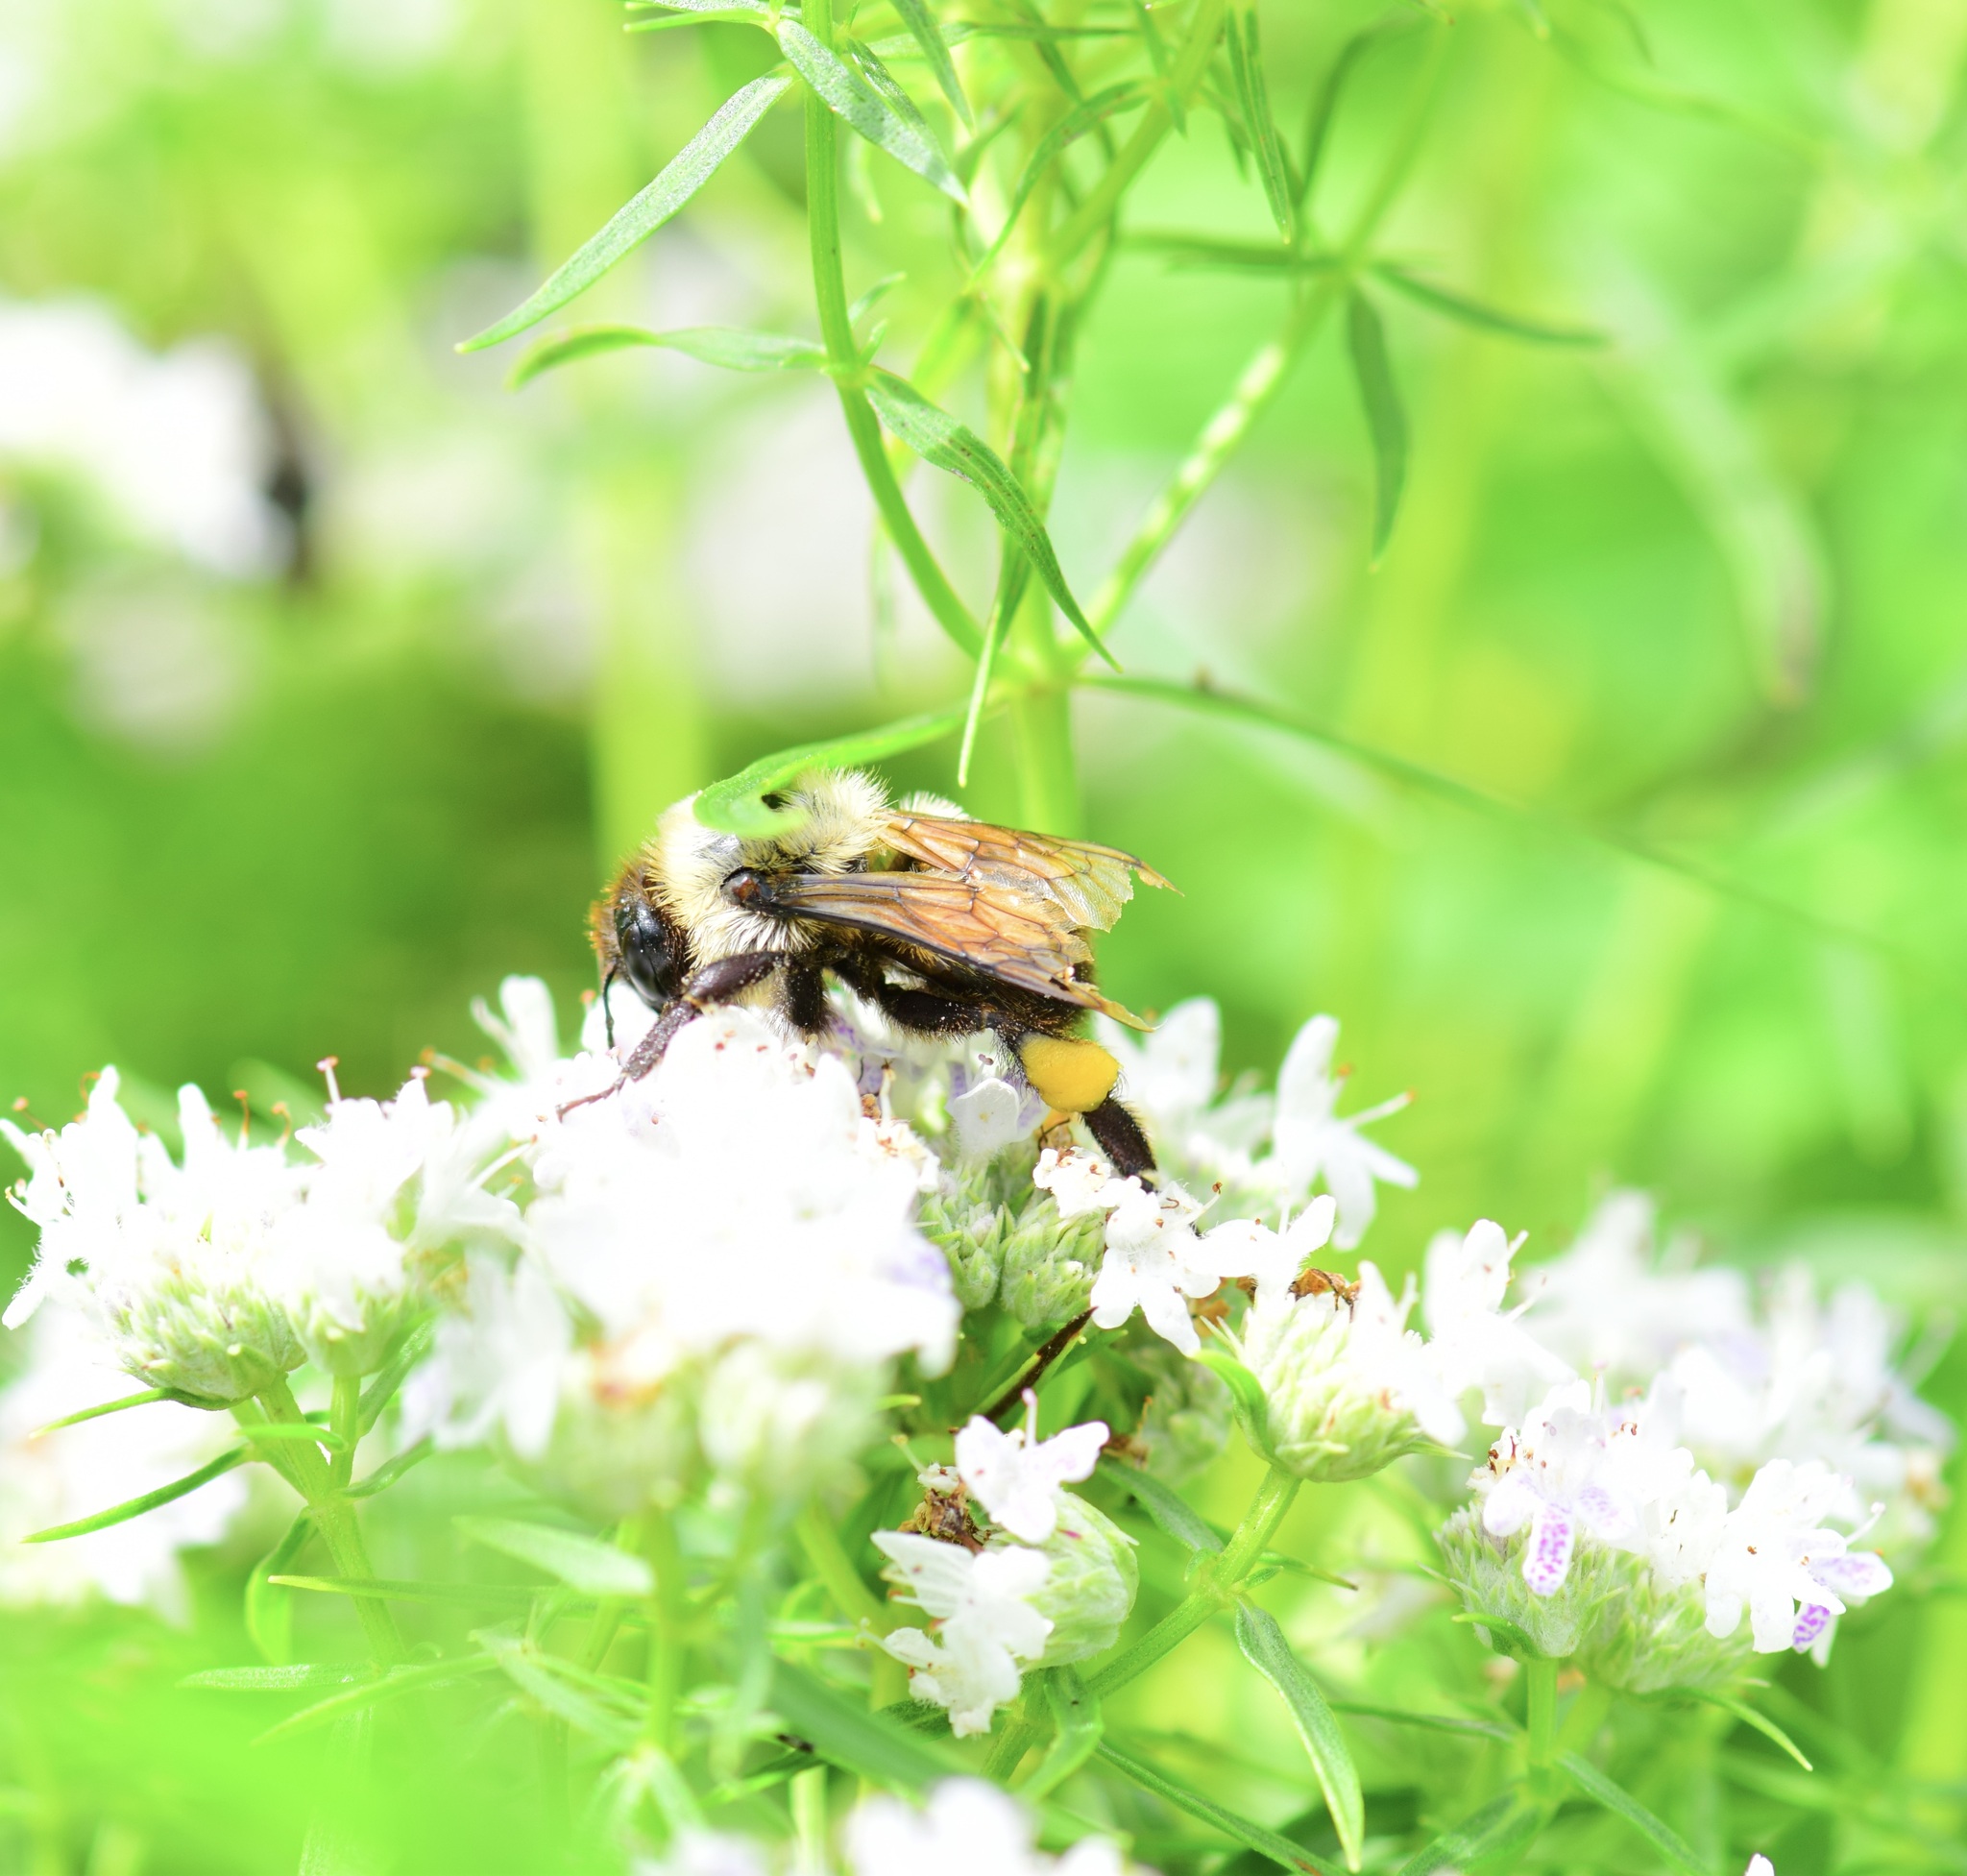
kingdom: Animalia
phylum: Arthropoda
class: Insecta
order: Hymenoptera
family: Apidae
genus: Bombus
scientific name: Bombus griseocollis
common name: Brown-belted bumble bee
